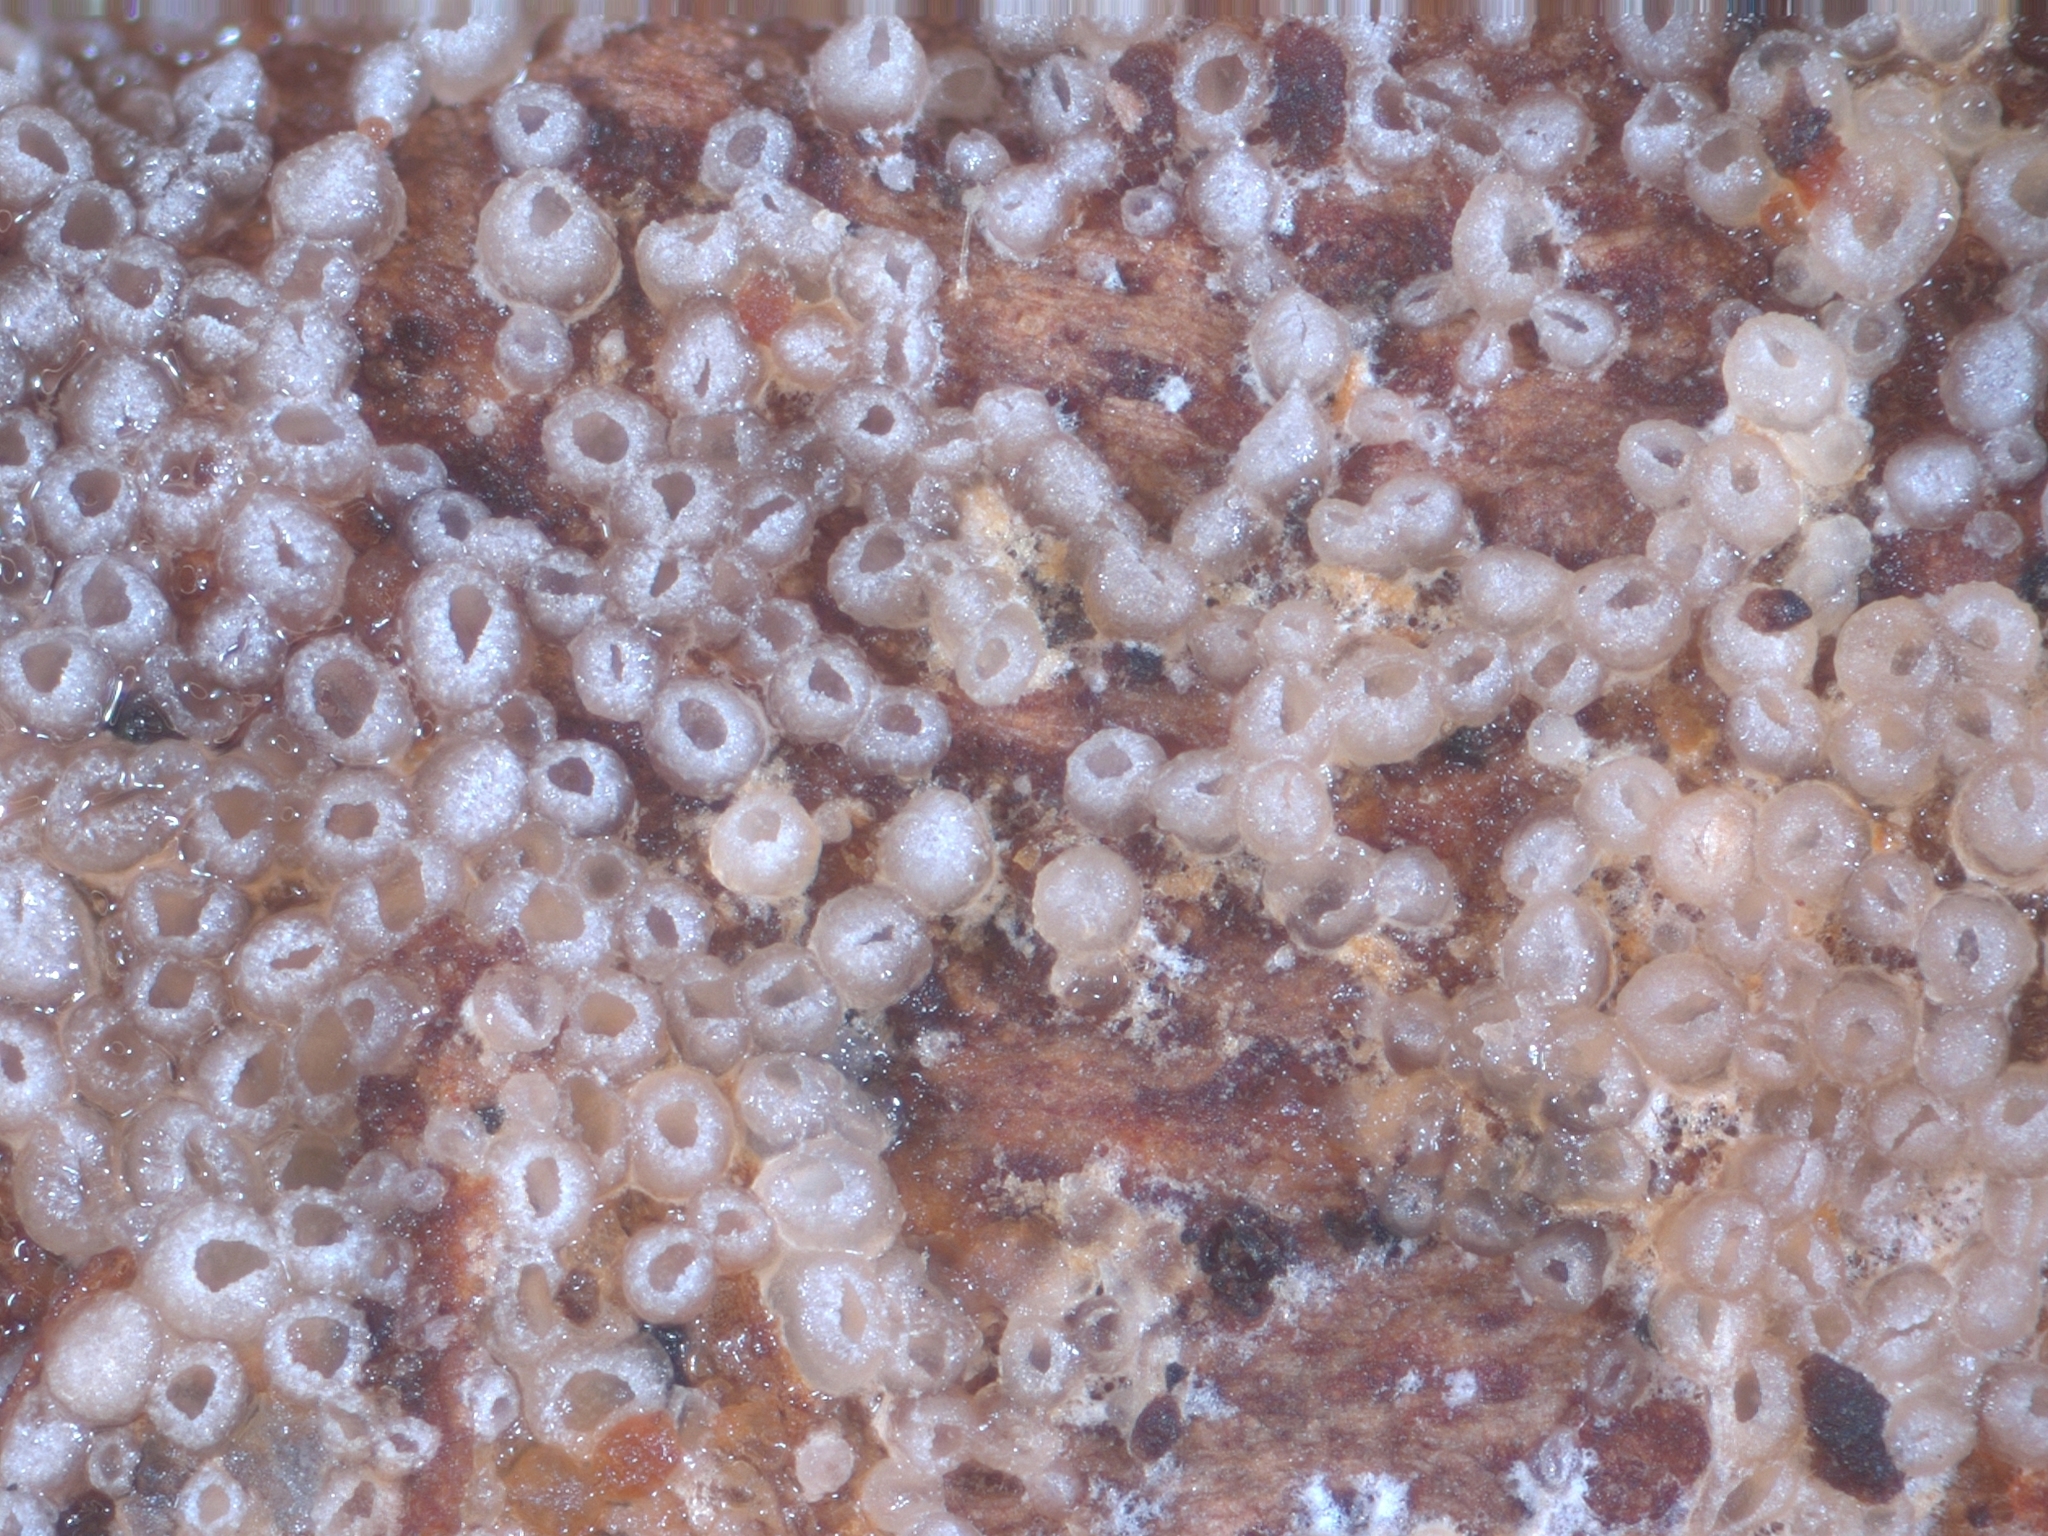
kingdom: Fungi
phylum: Basidiomycota
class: Agaricomycetes
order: Agaricales
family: Pleurotaceae
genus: Resupinatus
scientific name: Resupinatus poriaeformis
